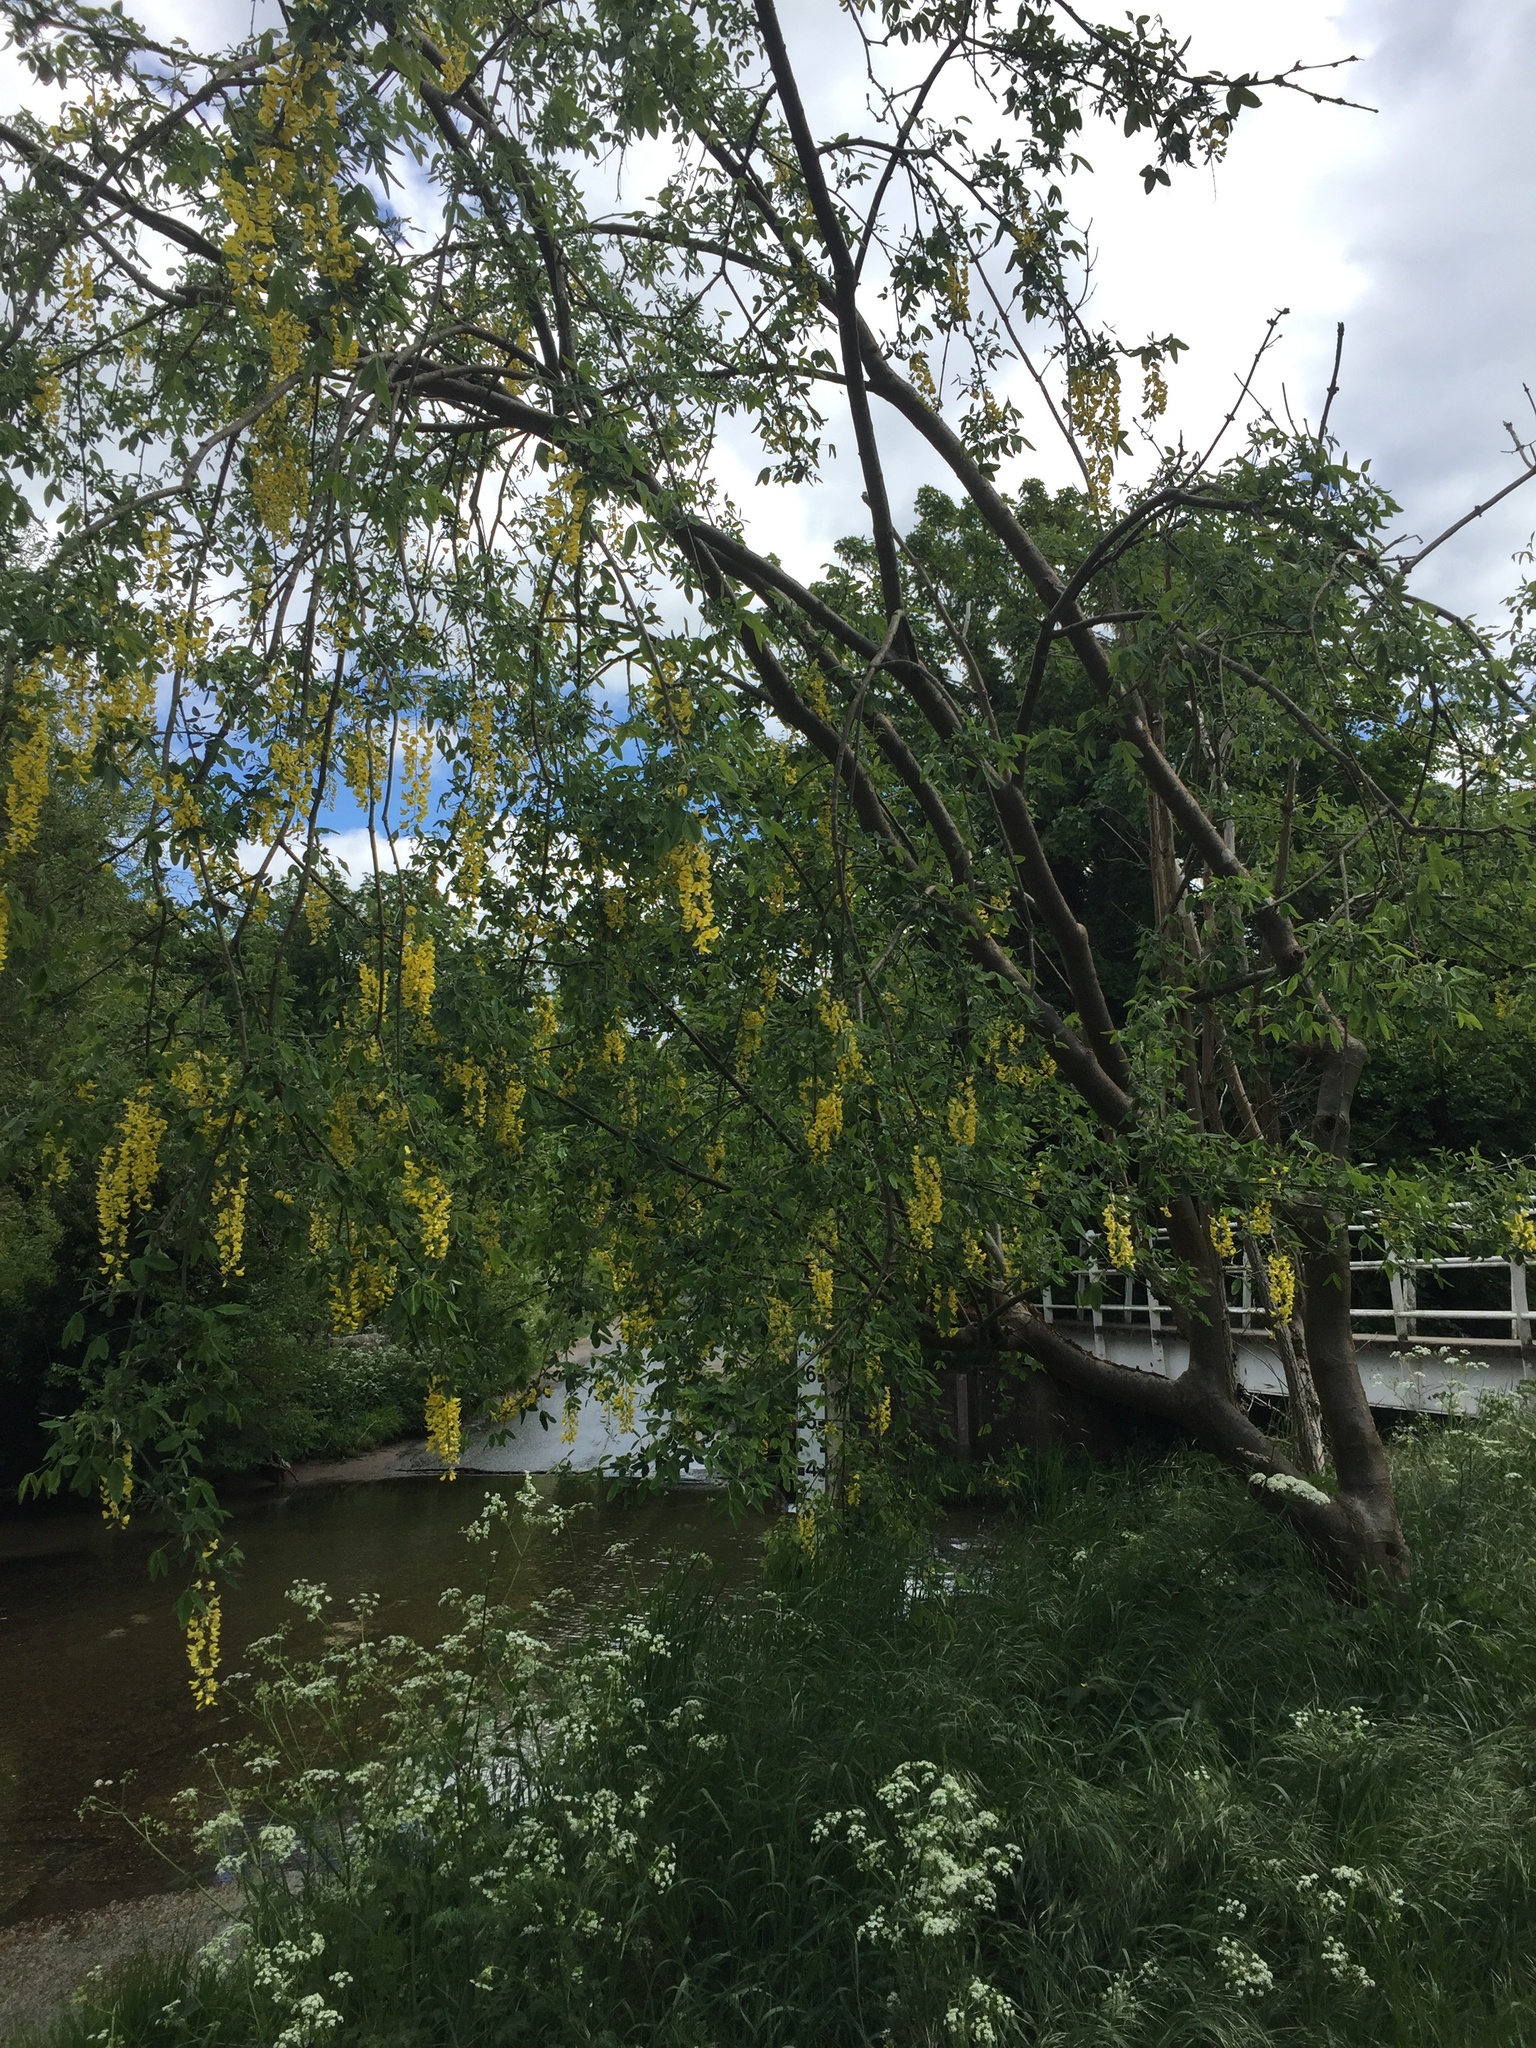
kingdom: Plantae
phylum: Tracheophyta
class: Magnoliopsida
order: Fabales
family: Fabaceae
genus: Laburnum
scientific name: Laburnum anagyroides
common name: Laburnum
